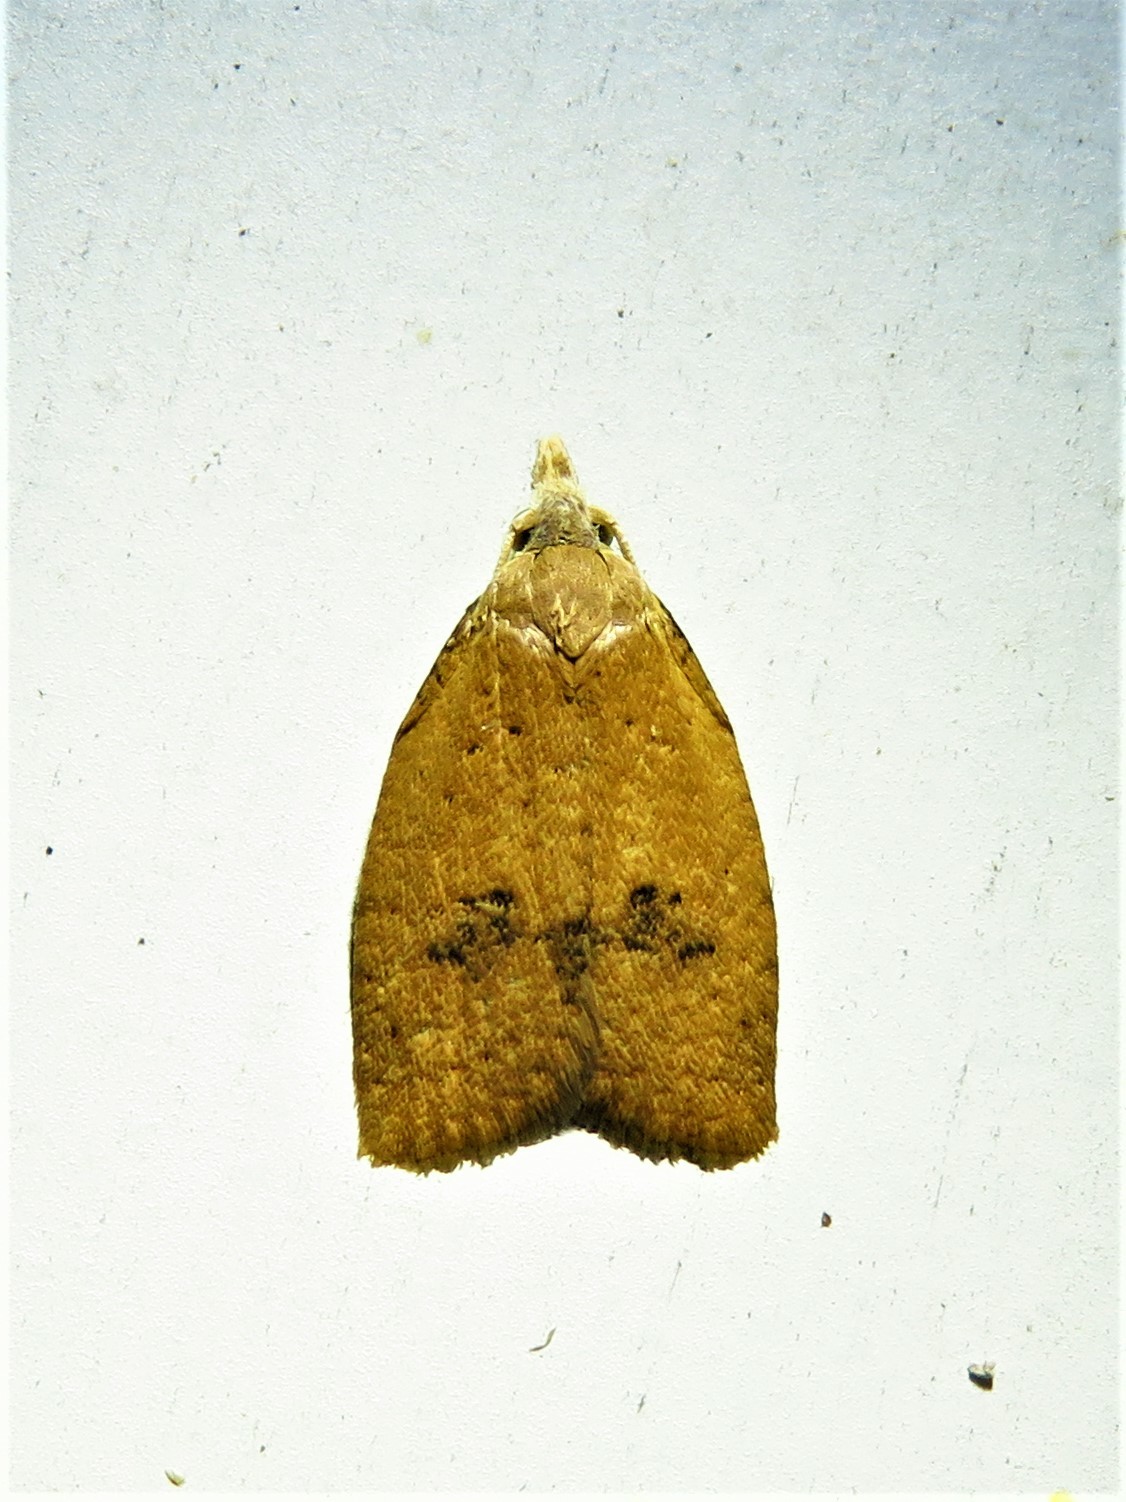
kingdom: Animalia
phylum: Arthropoda
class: Insecta
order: Lepidoptera
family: Tortricidae
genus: Sparganothoides
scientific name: Sparganothoides lentiginosana
